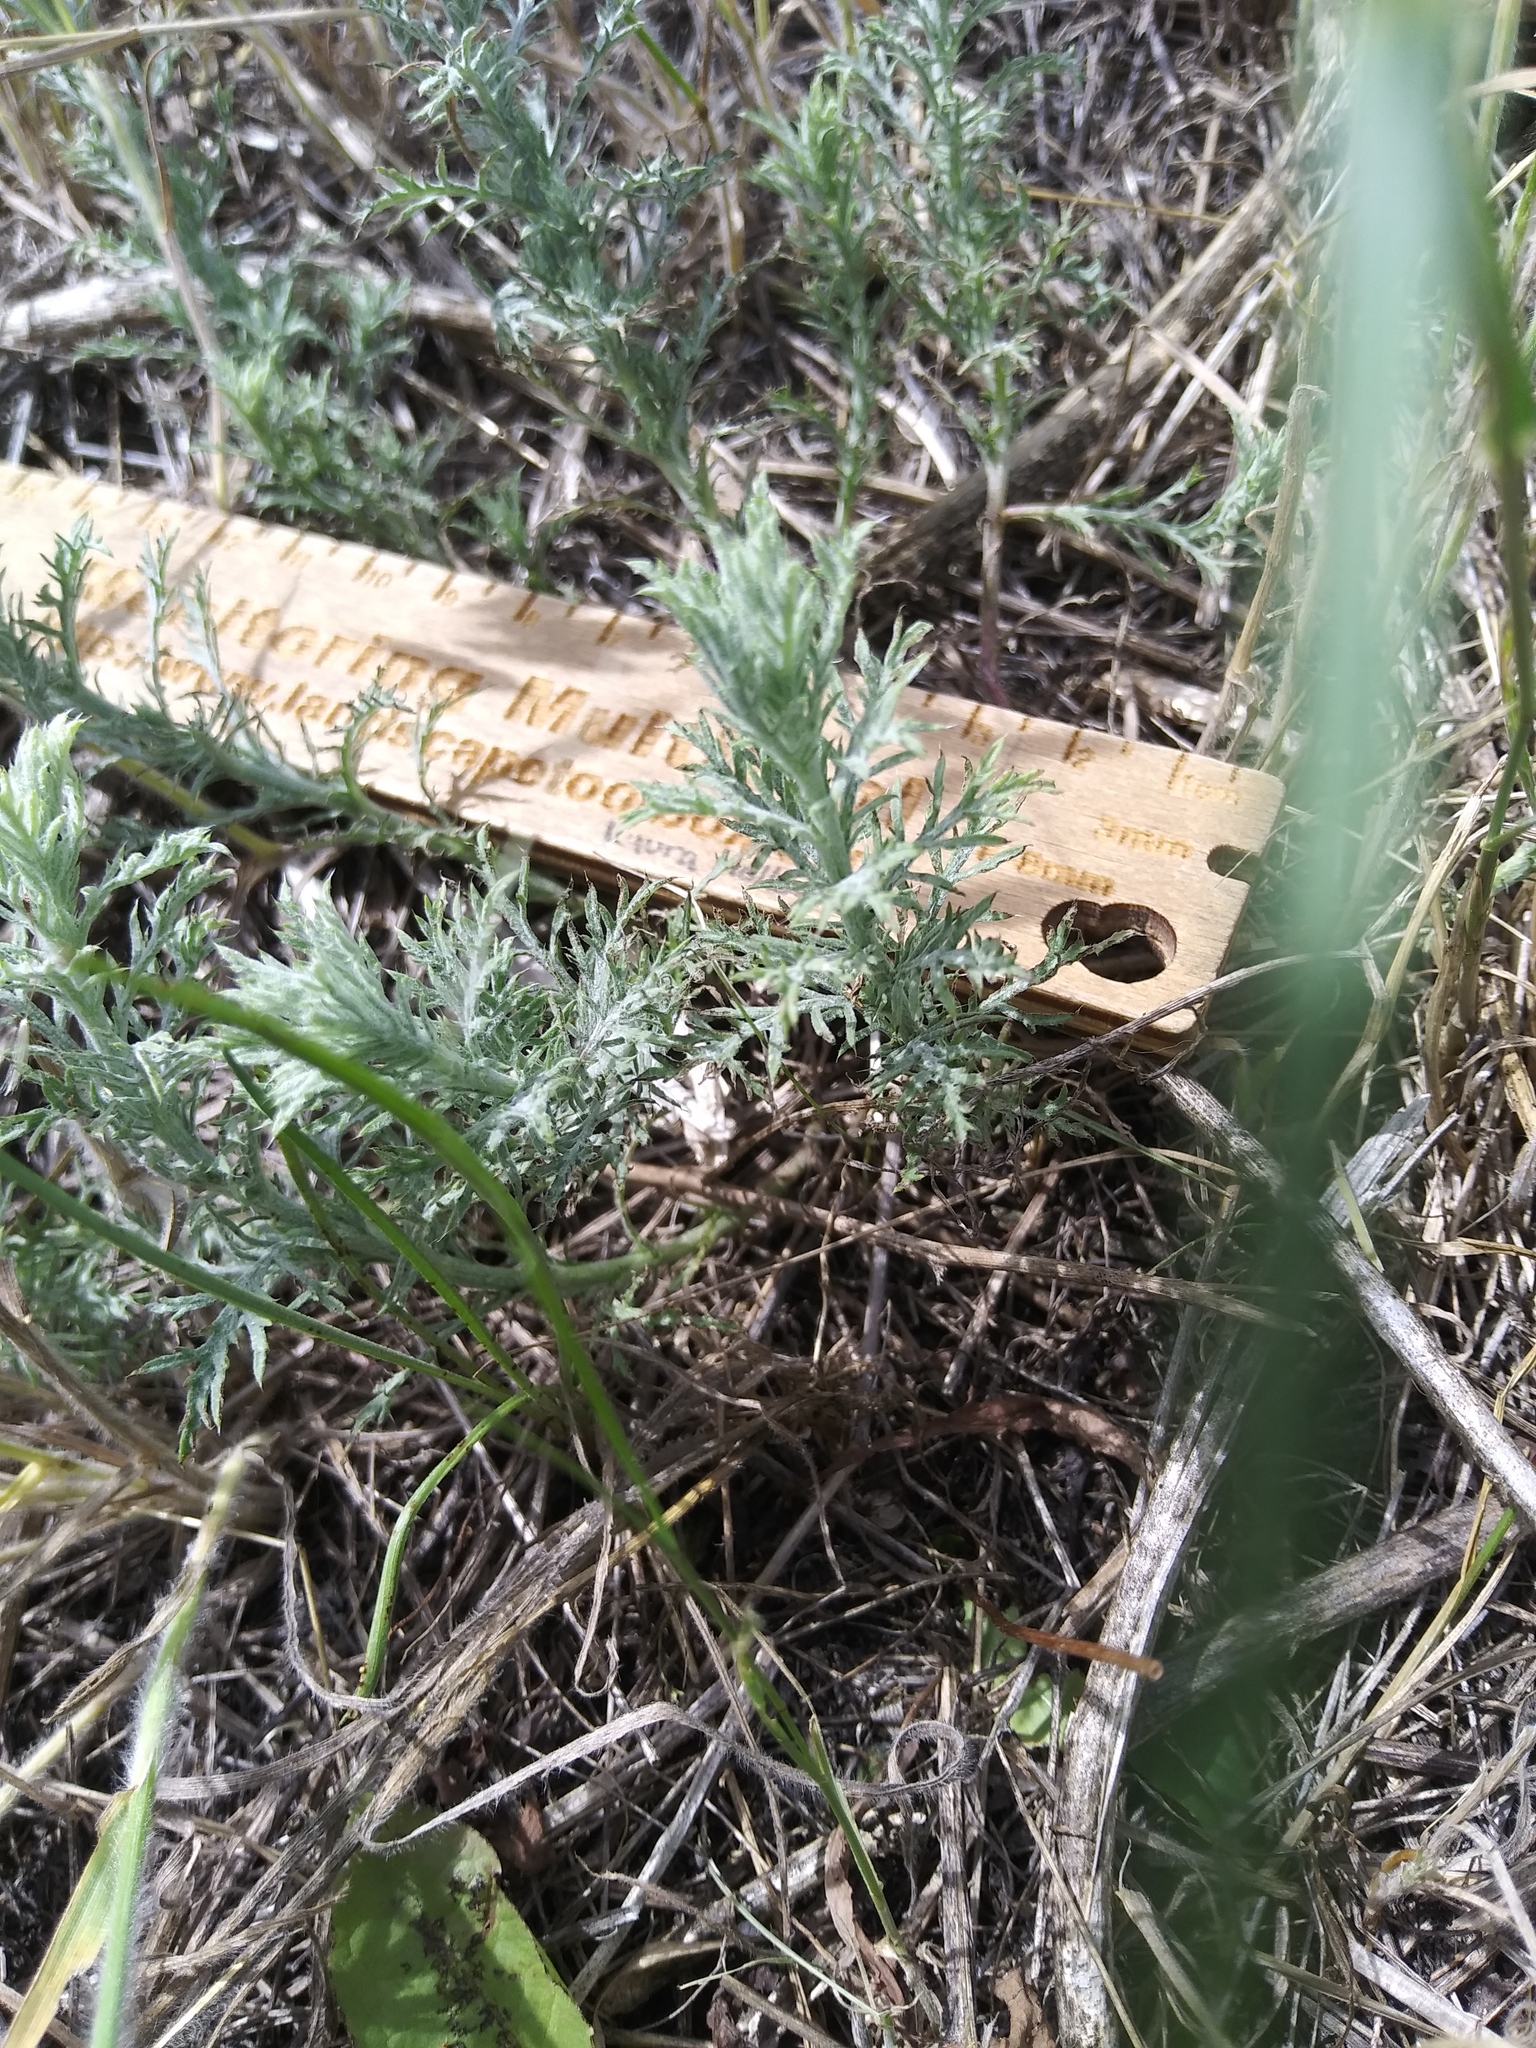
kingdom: Plantae
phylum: Tracheophyta
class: Magnoliopsida
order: Asterales
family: Asteraceae
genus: Xanthisma
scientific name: Xanthisma spinulosum
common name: Spiny goldenweed
